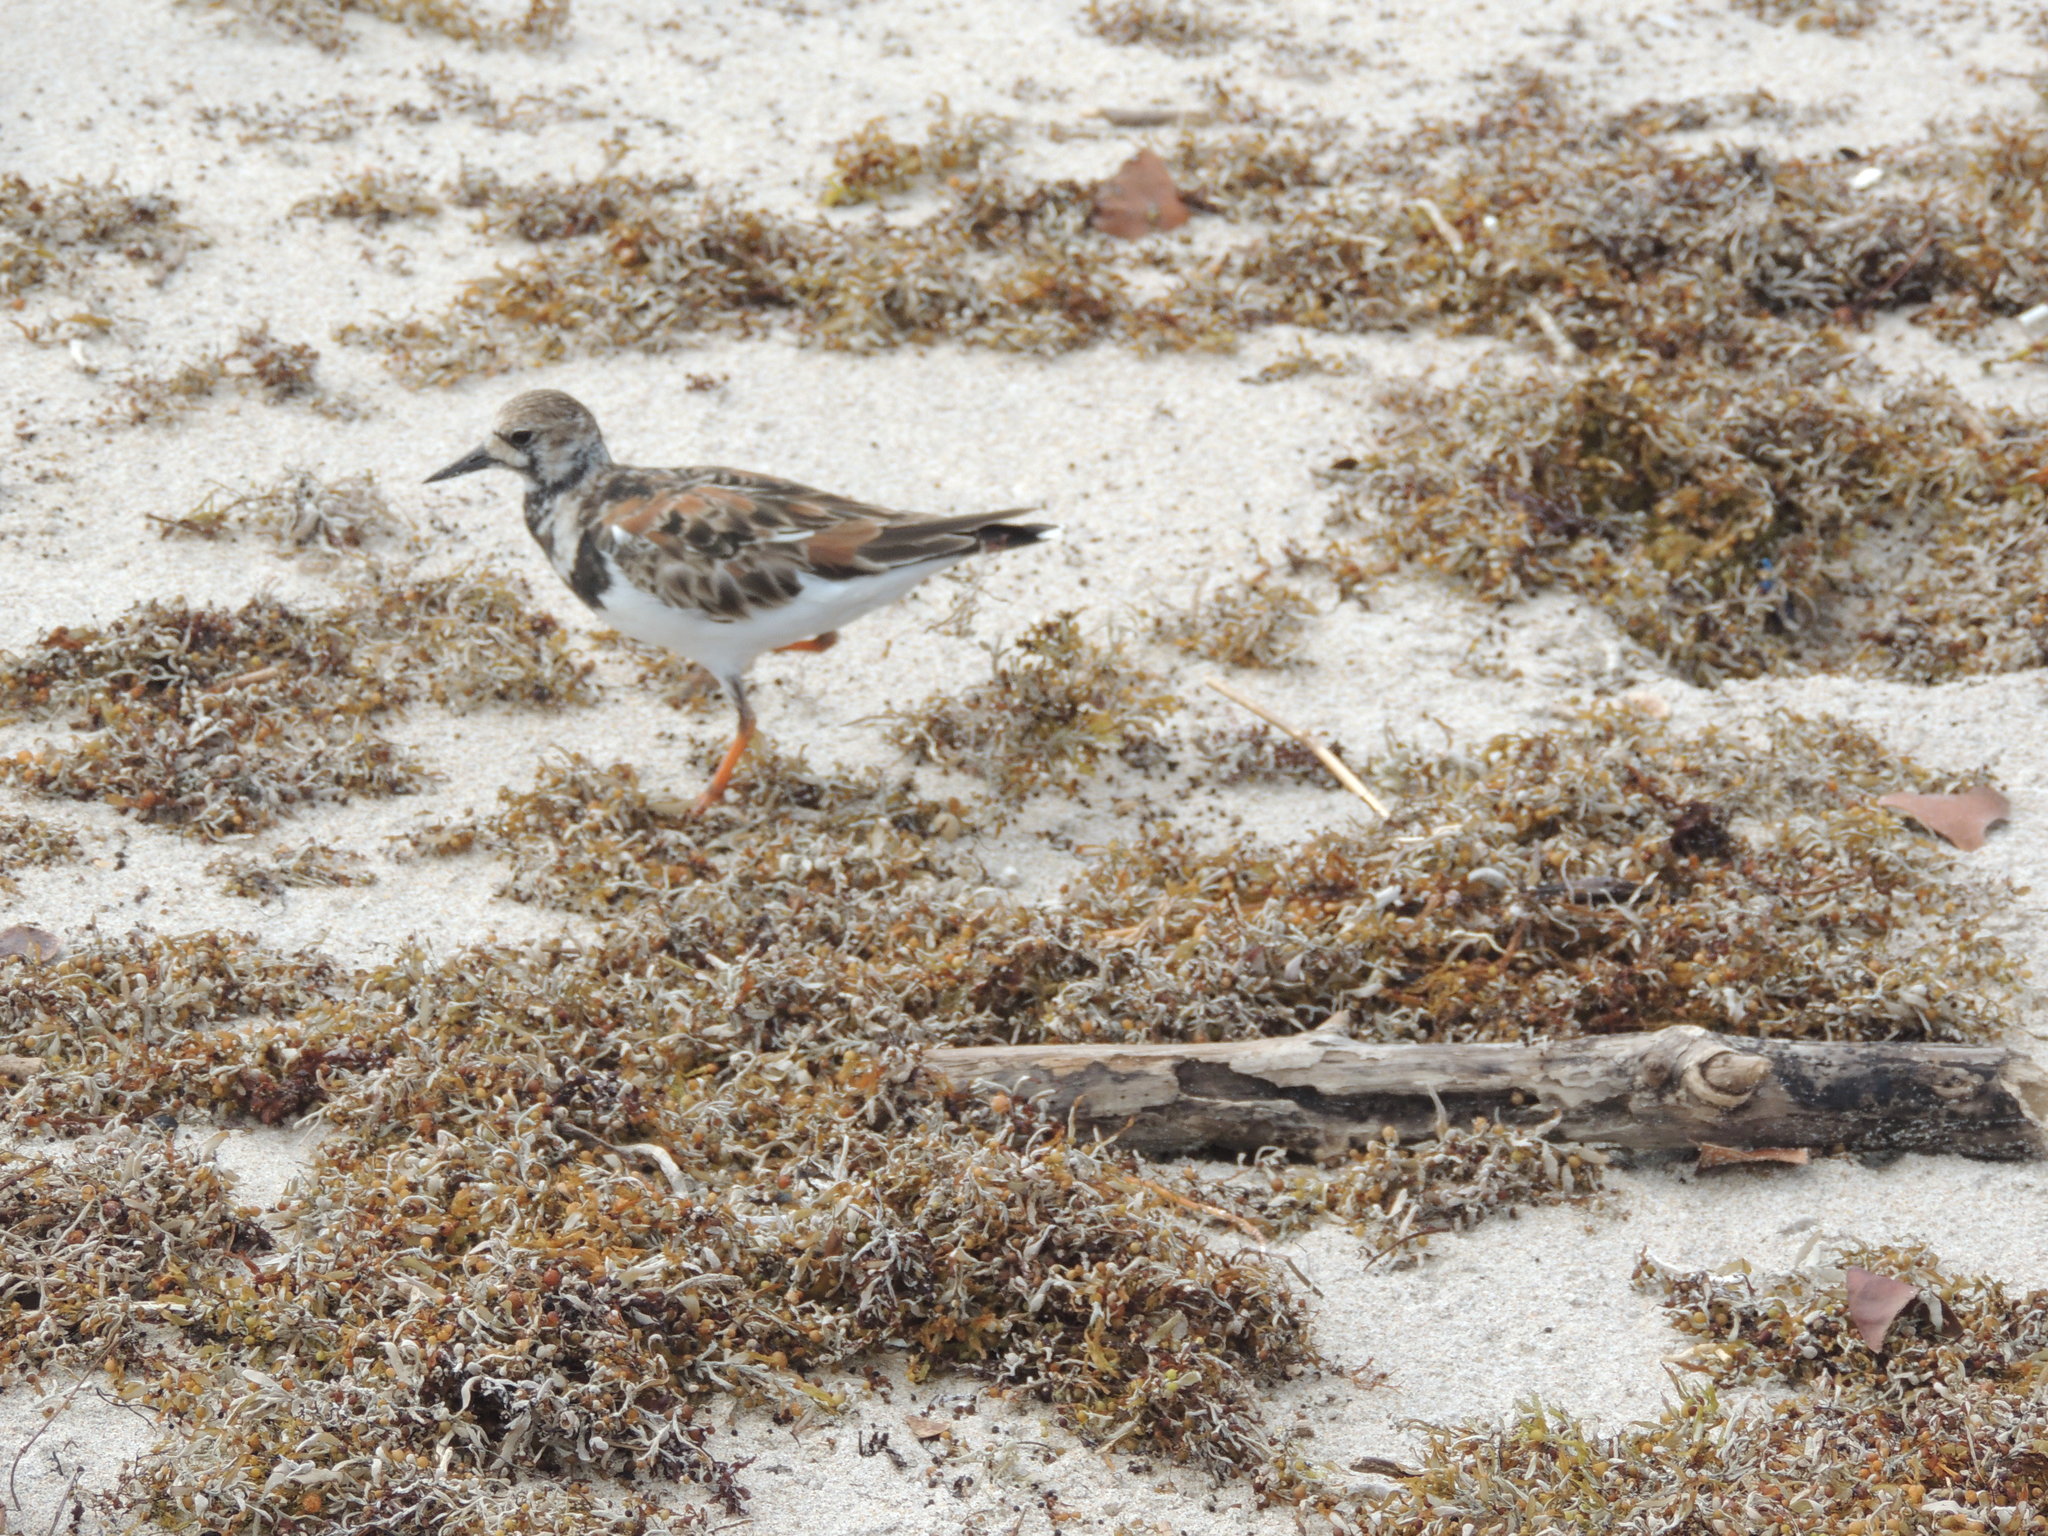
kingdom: Animalia
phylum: Chordata
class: Aves
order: Charadriiformes
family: Scolopacidae
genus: Arenaria
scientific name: Arenaria interpres
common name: Ruddy turnstone
